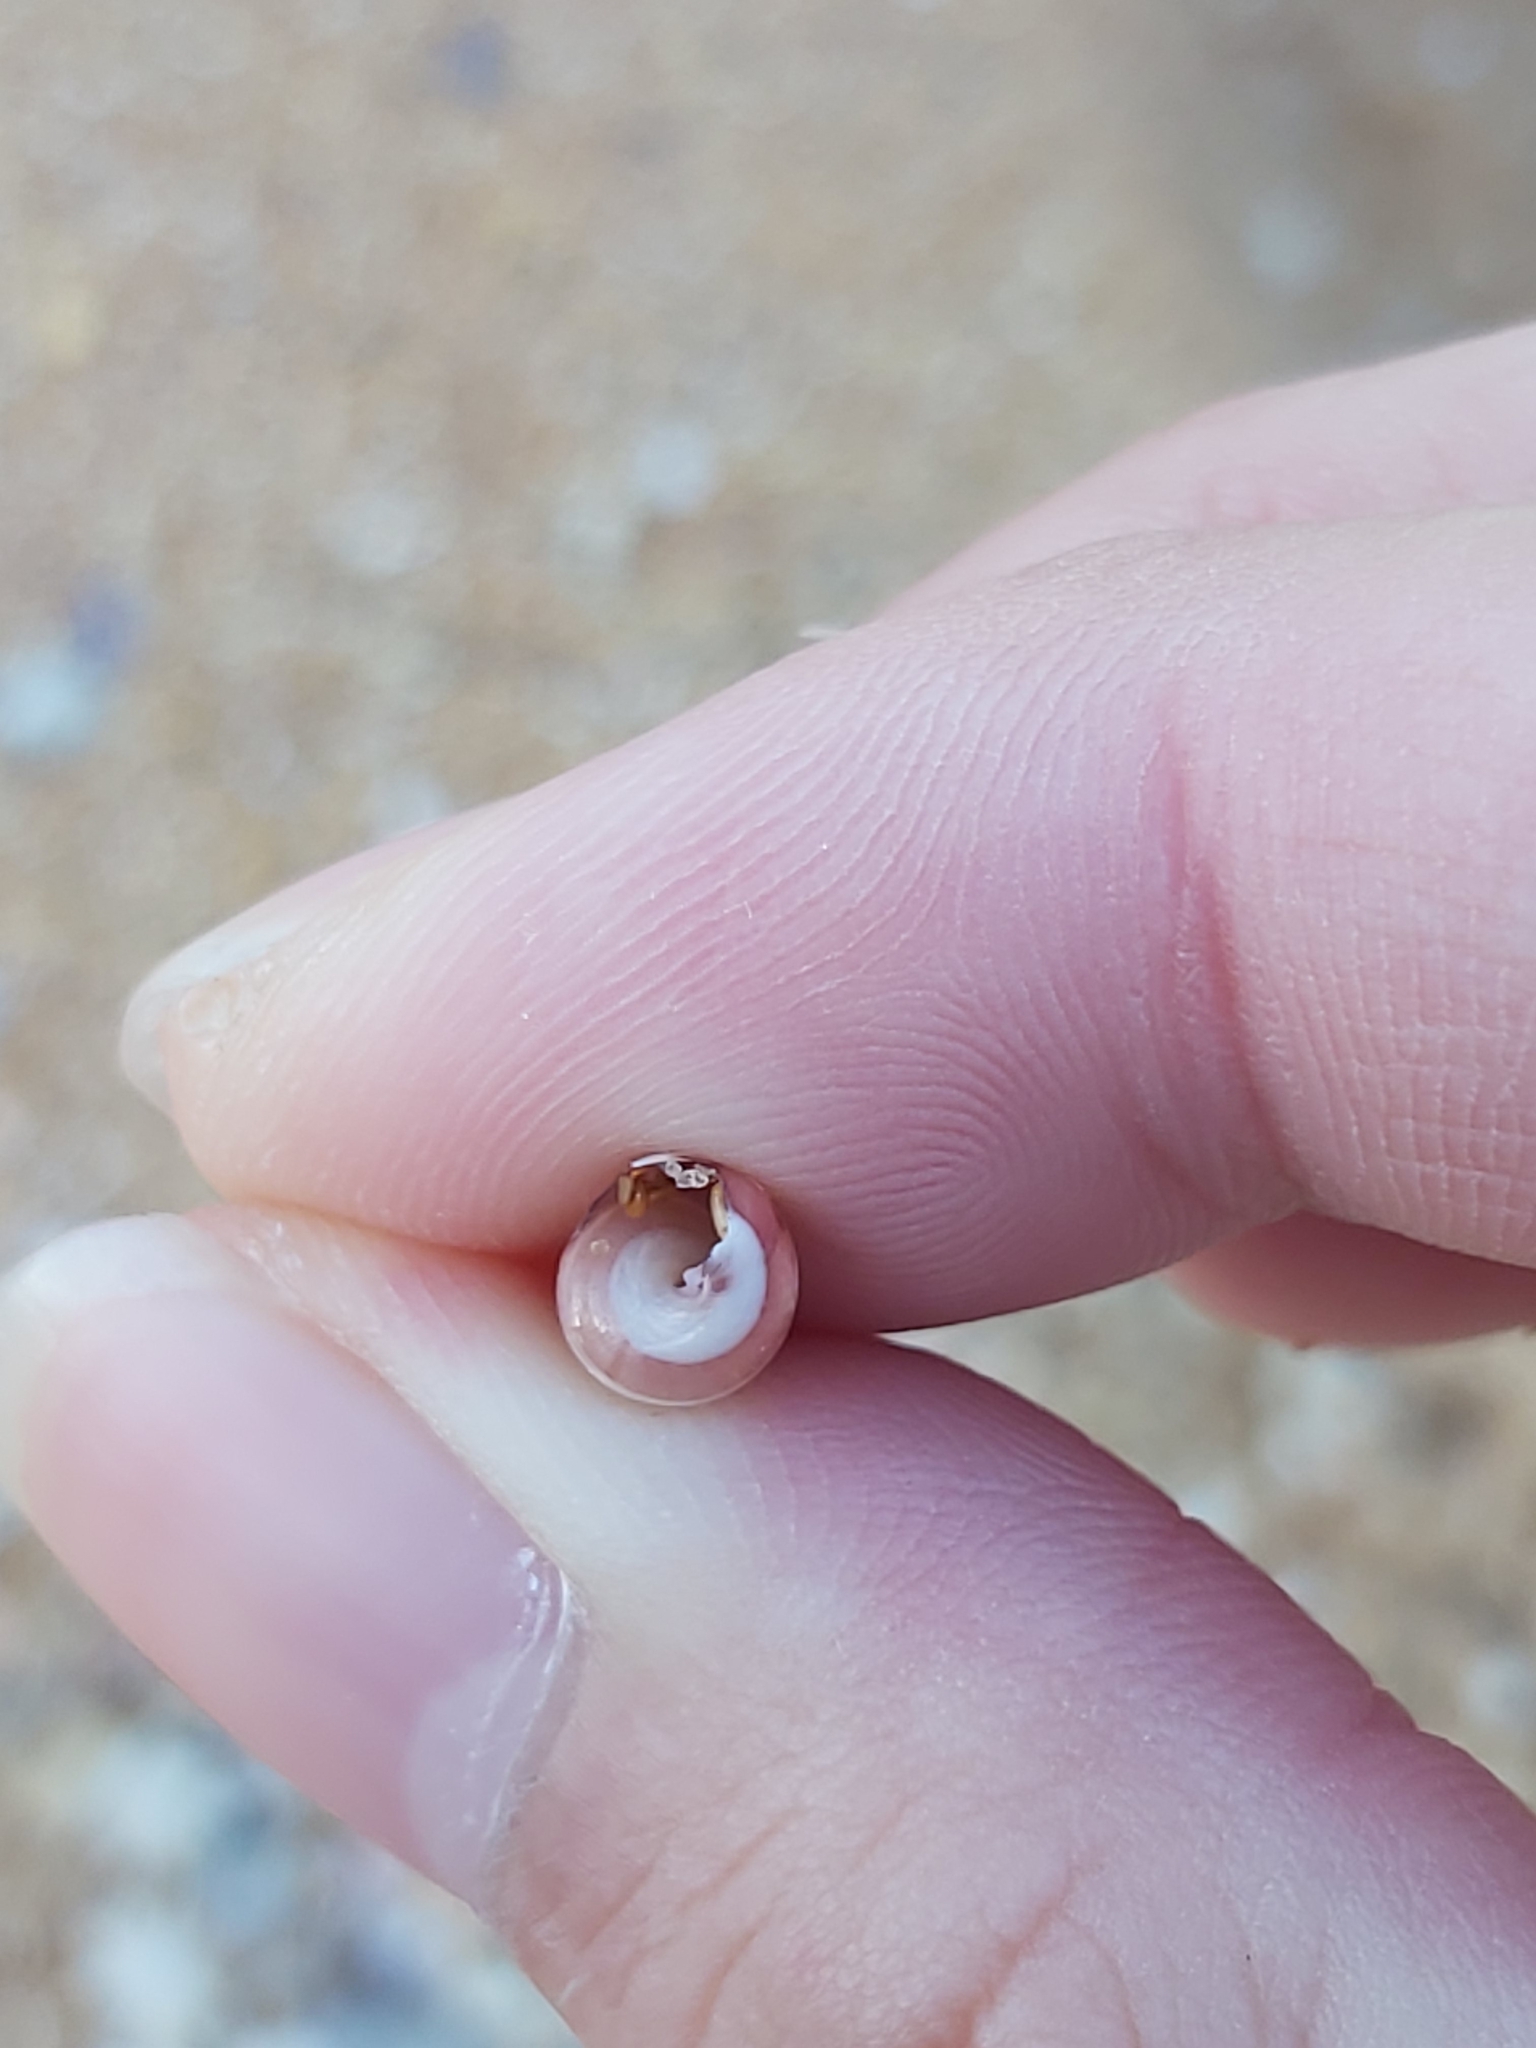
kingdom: Animalia
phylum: Mollusca
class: Gastropoda
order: Trochida
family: Trochidae
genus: Bankivia
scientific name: Bankivia fasciata
